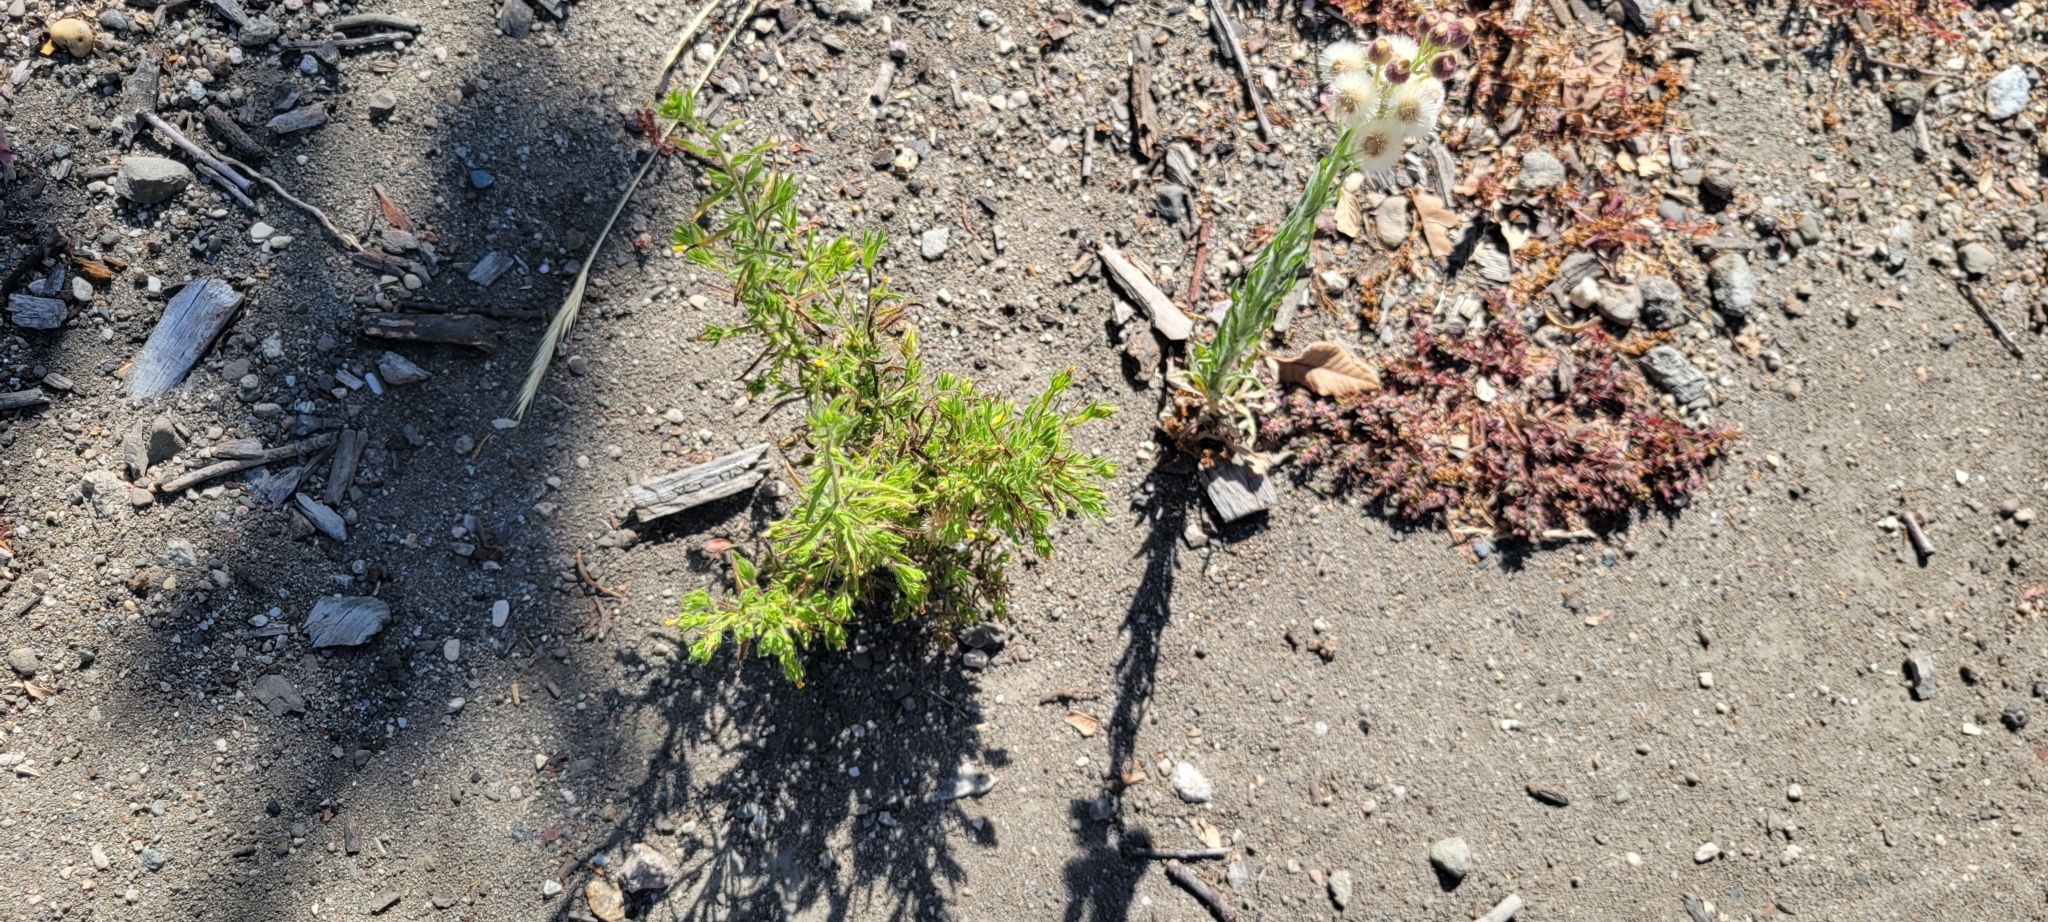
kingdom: Plantae
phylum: Tracheophyta
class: Magnoliopsida
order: Asterales
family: Asteraceae
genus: Dittrichia
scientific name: Dittrichia graveolens
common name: Stinking fleabane
